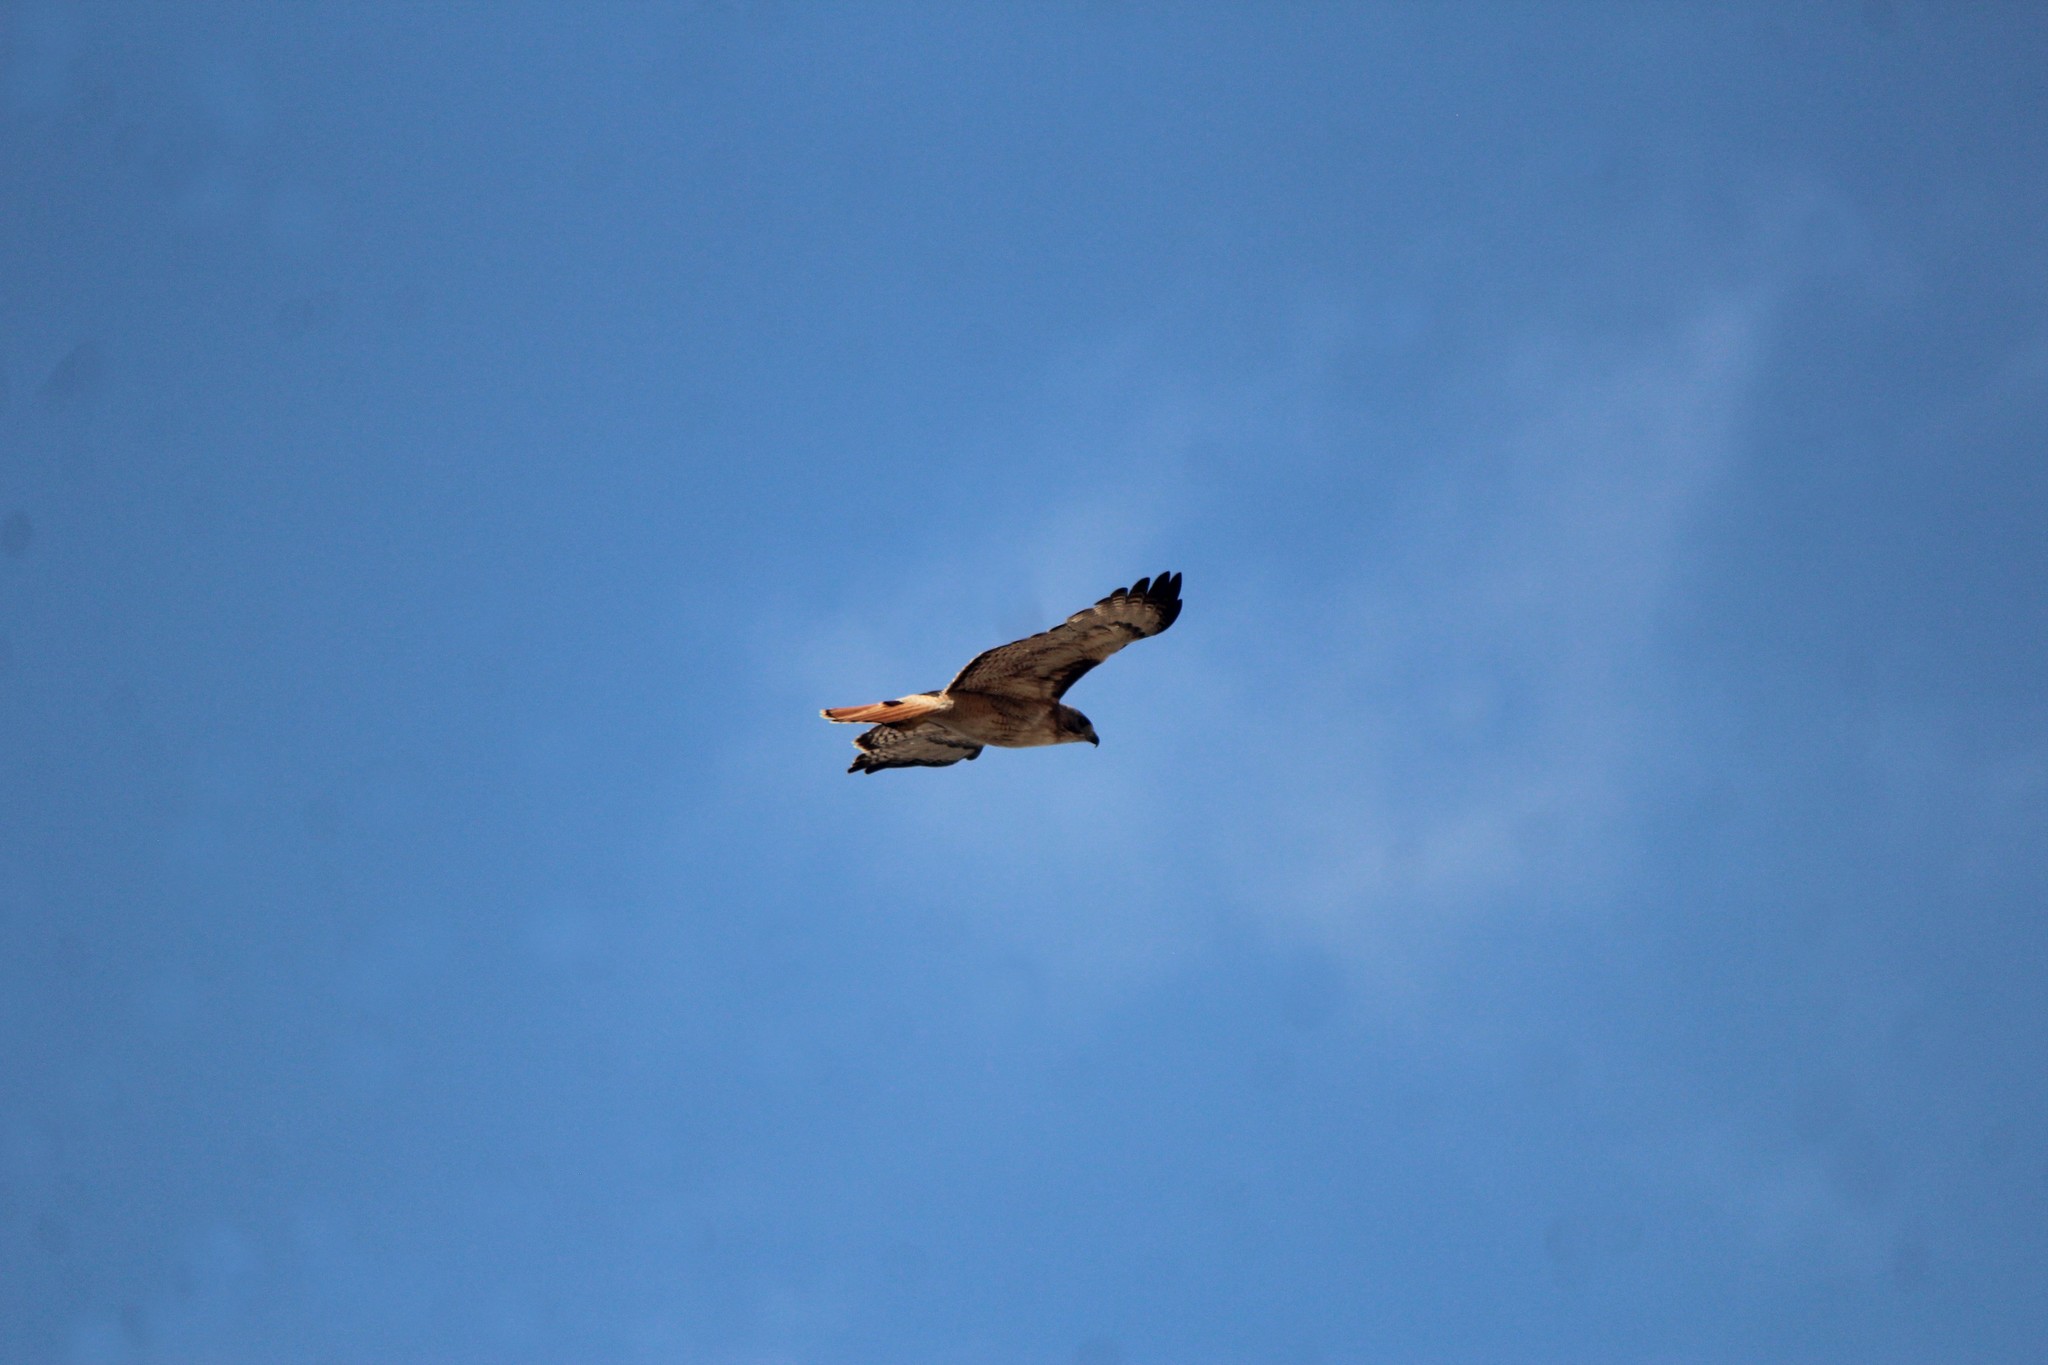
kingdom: Animalia
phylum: Chordata
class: Aves
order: Accipitriformes
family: Accipitridae
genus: Buteo
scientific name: Buteo jamaicensis
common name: Red-tailed hawk
